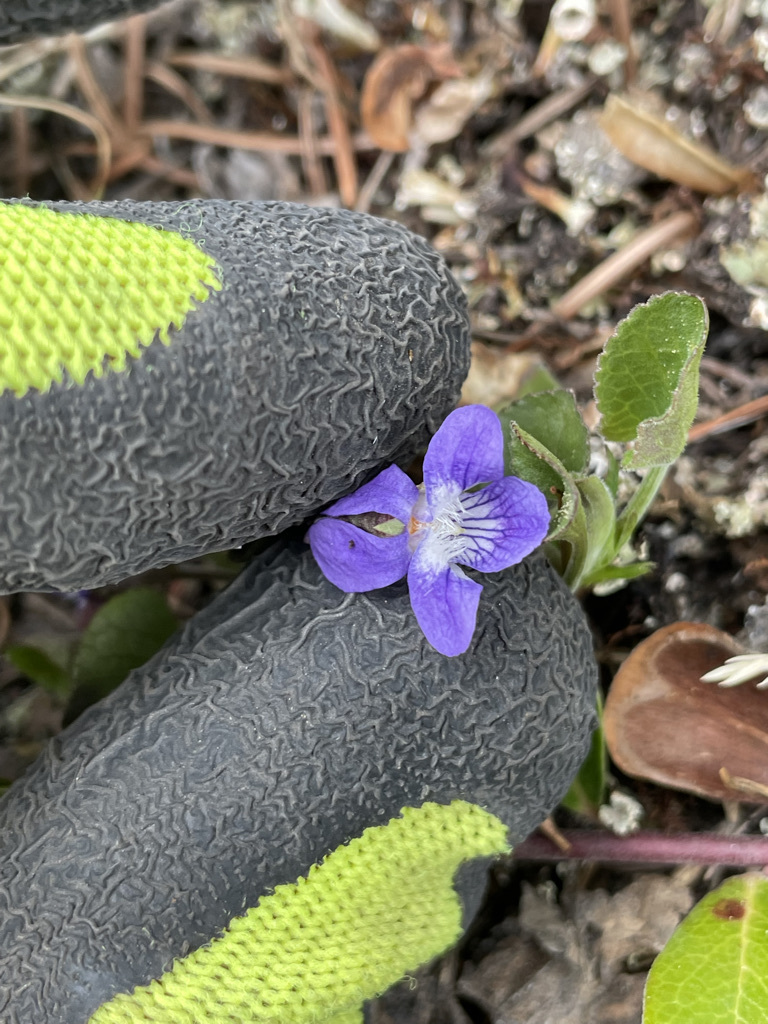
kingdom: Plantae
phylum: Tracheophyta
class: Magnoliopsida
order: Malpighiales
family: Violaceae
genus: Viola
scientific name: Viola adunca
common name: Sand violet
